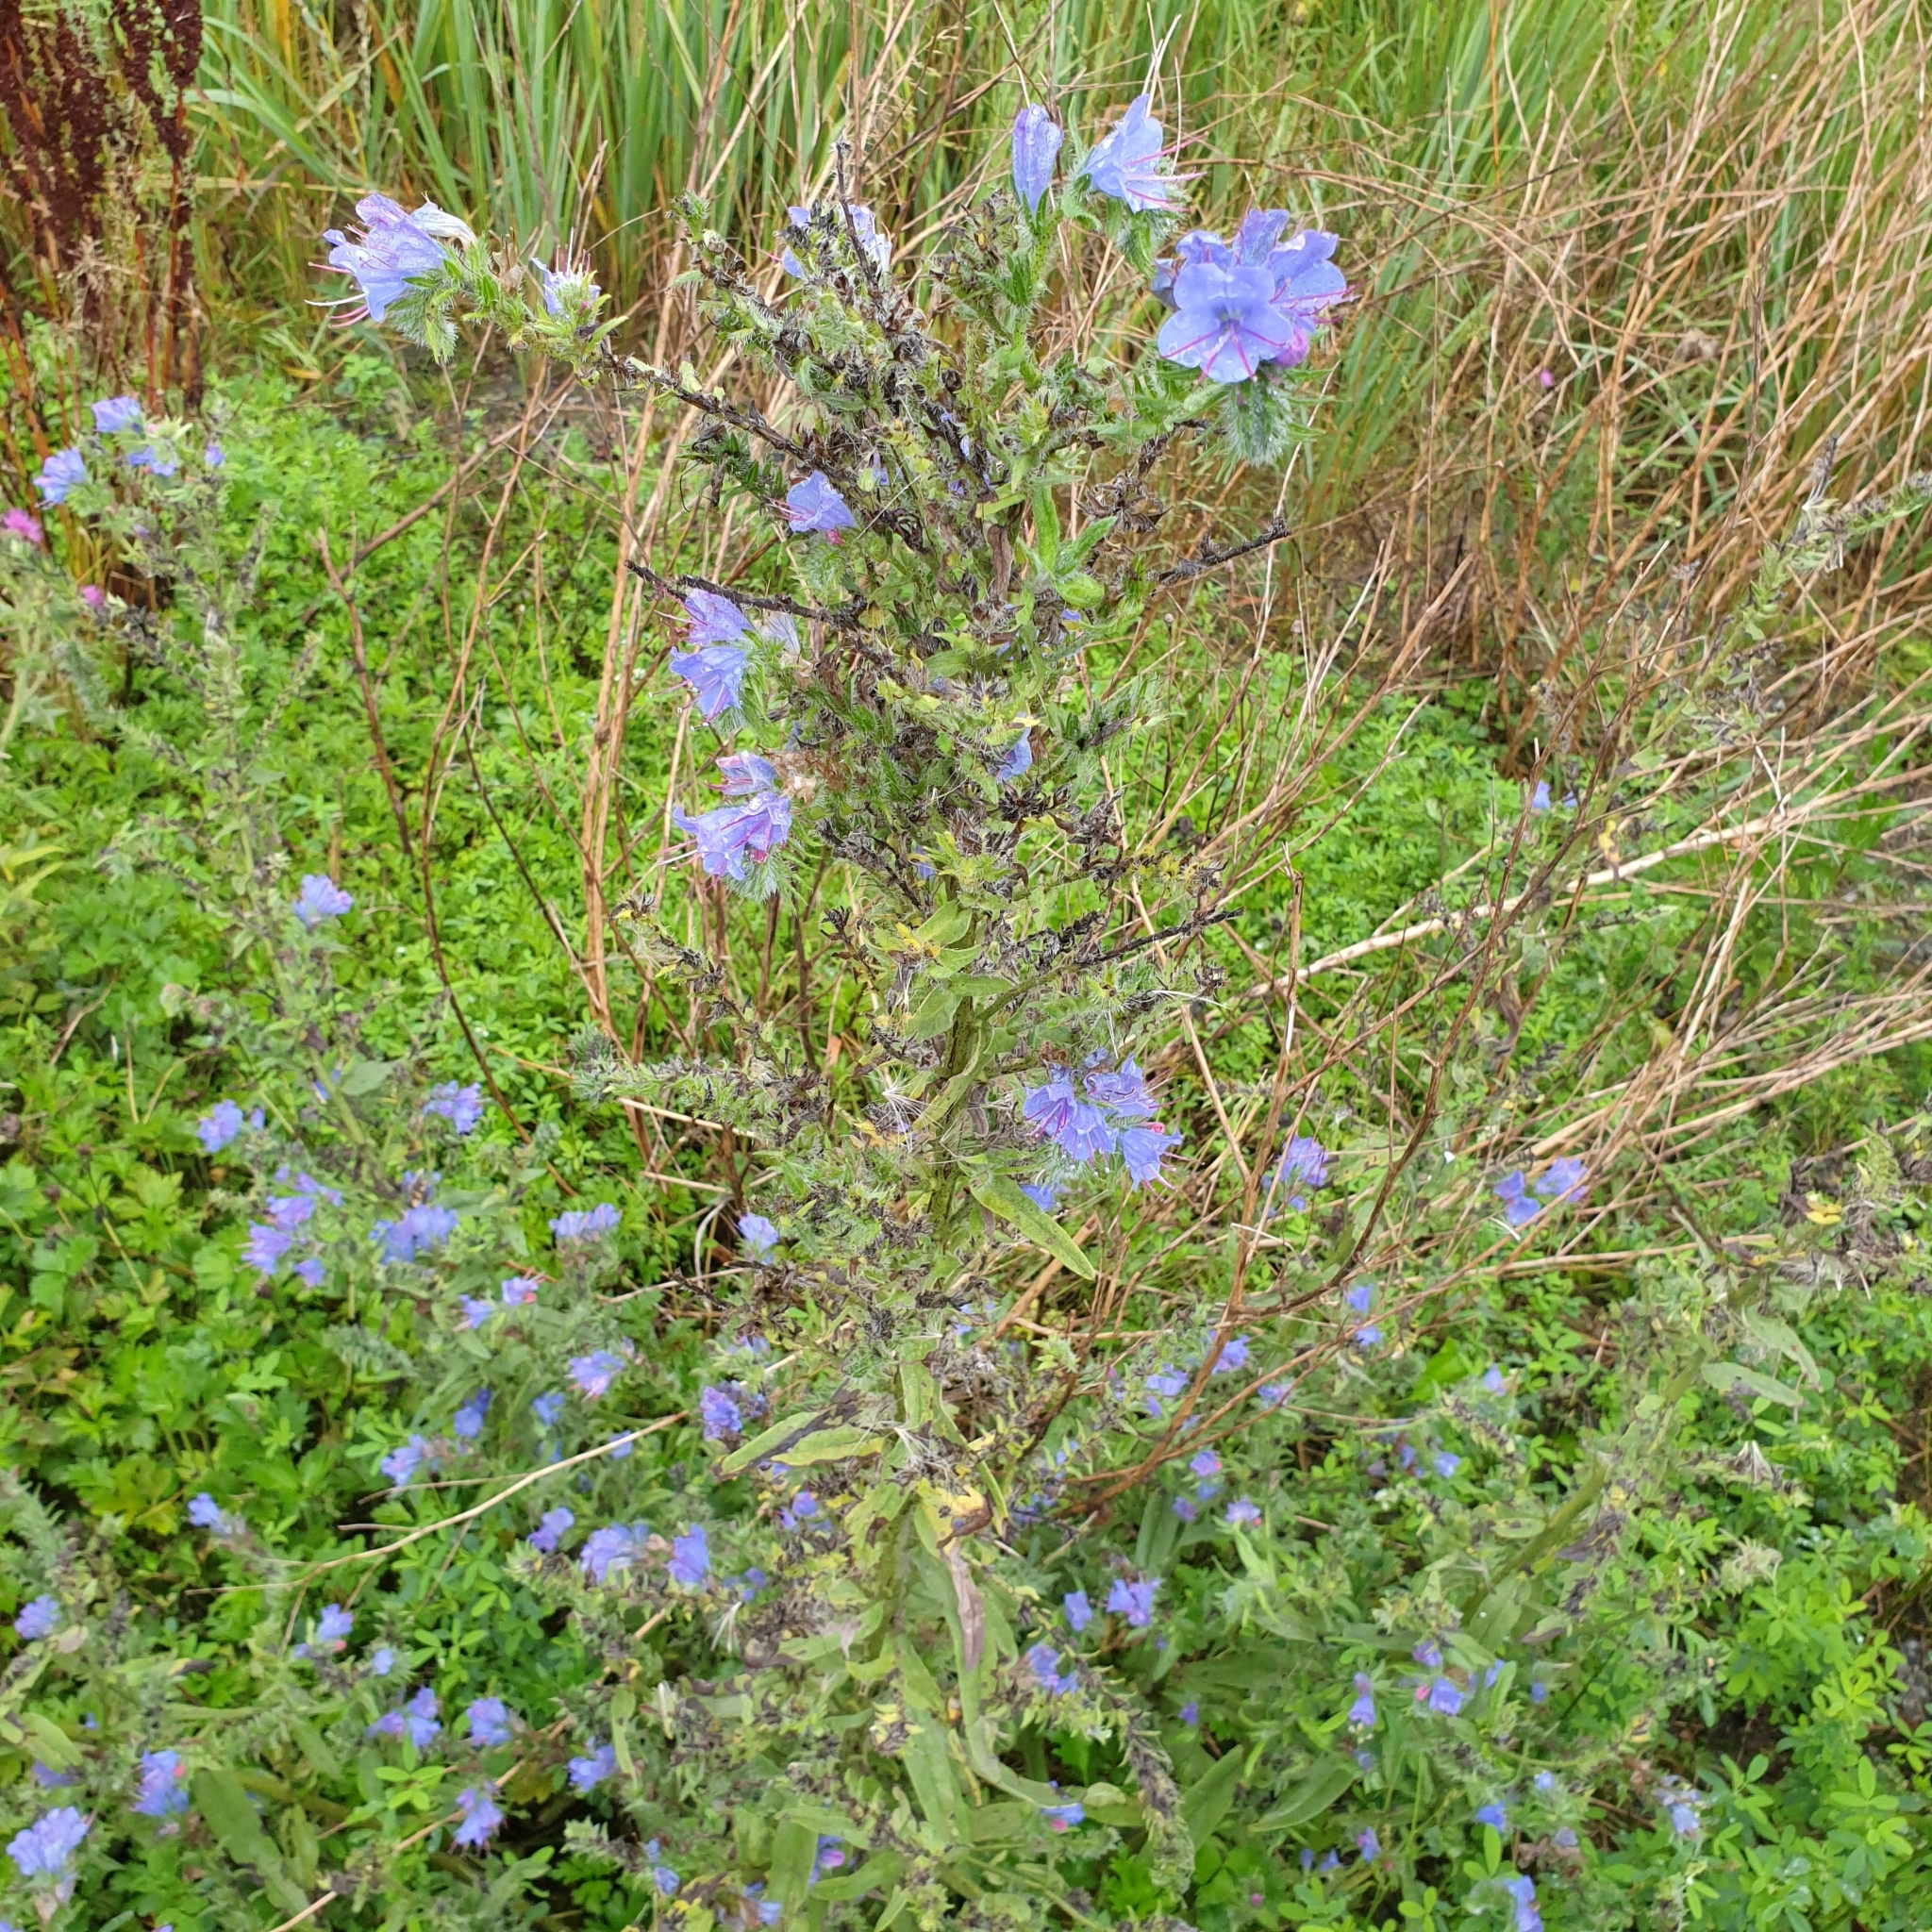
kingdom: Plantae
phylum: Tracheophyta
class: Magnoliopsida
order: Boraginales
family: Boraginaceae
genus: Echium
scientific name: Echium vulgare
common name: Common viper's bugloss
